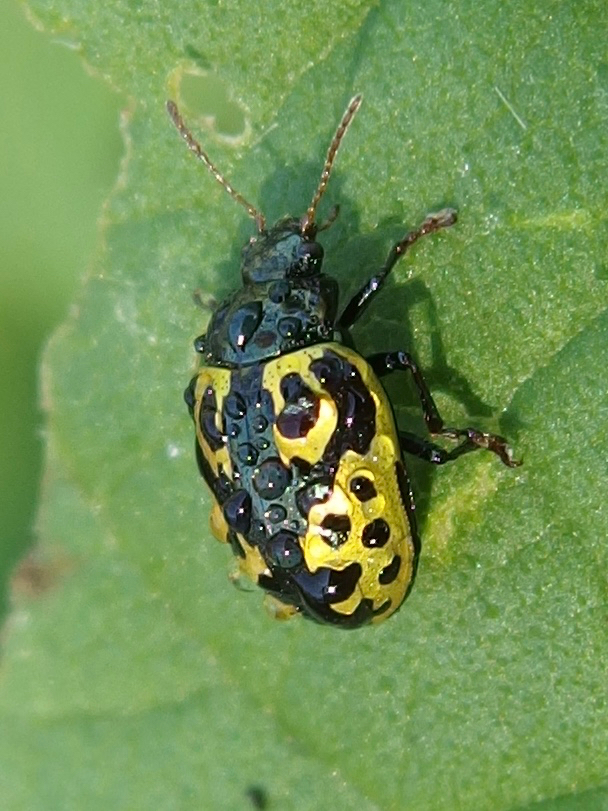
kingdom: Animalia
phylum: Arthropoda
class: Insecta
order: Coleoptera
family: Chrysomelidae
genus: Calligrapha
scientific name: Calligrapha
